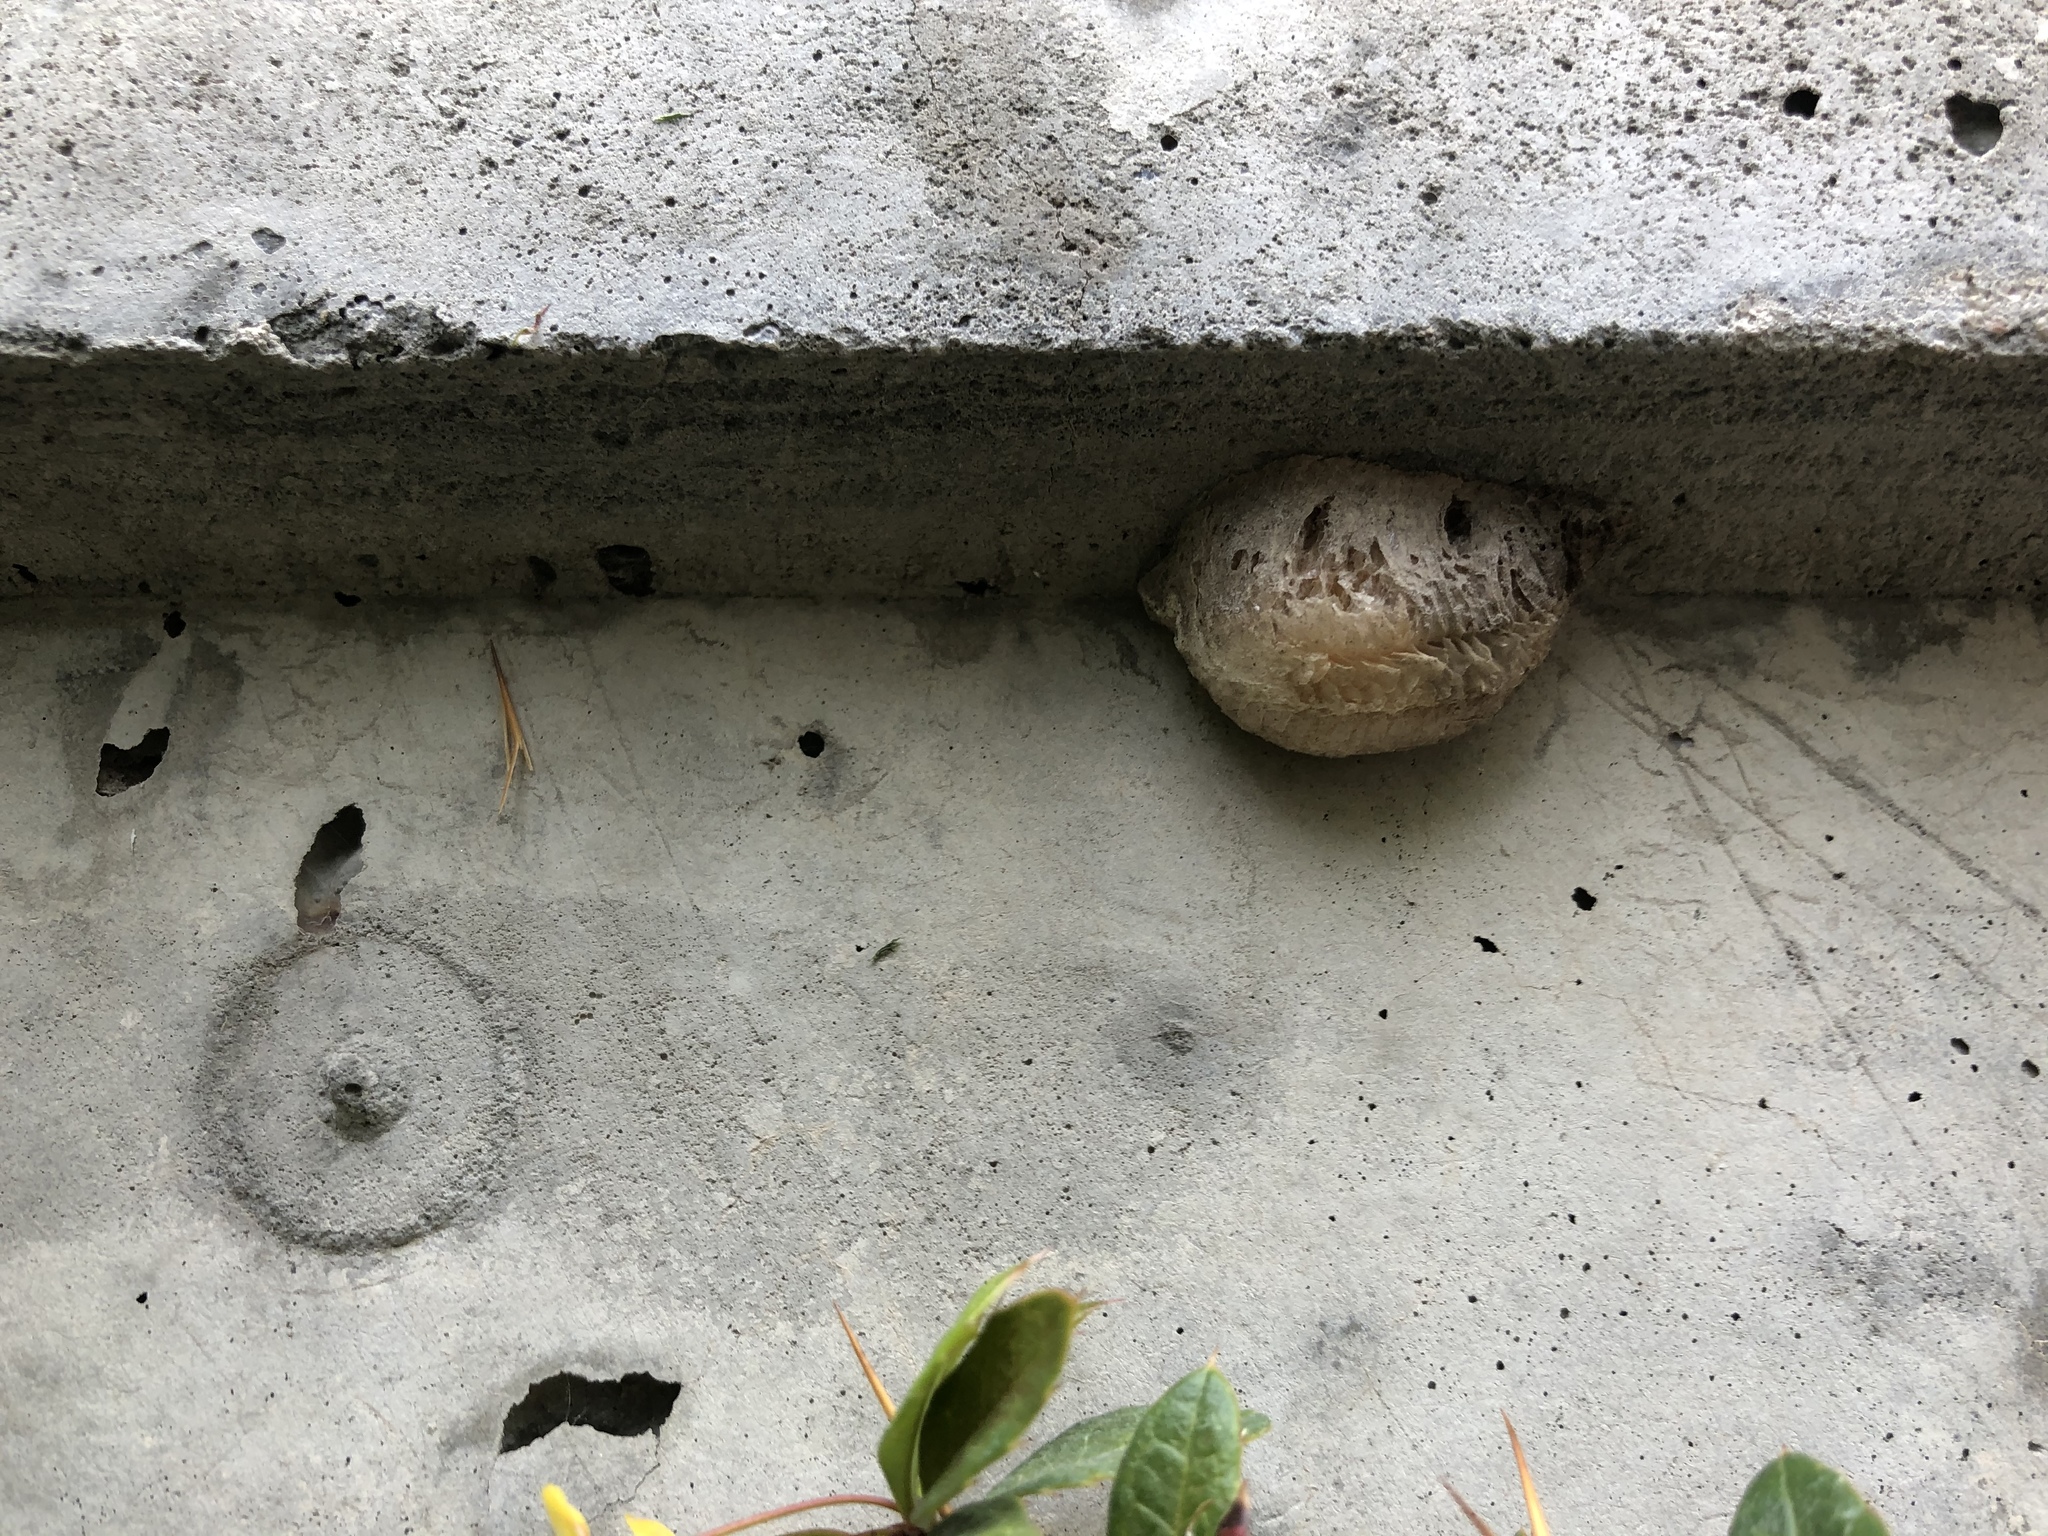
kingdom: Animalia
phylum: Arthropoda
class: Insecta
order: Mantodea
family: Mantidae
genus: Mantis
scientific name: Mantis religiosa
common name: Praying mantis
